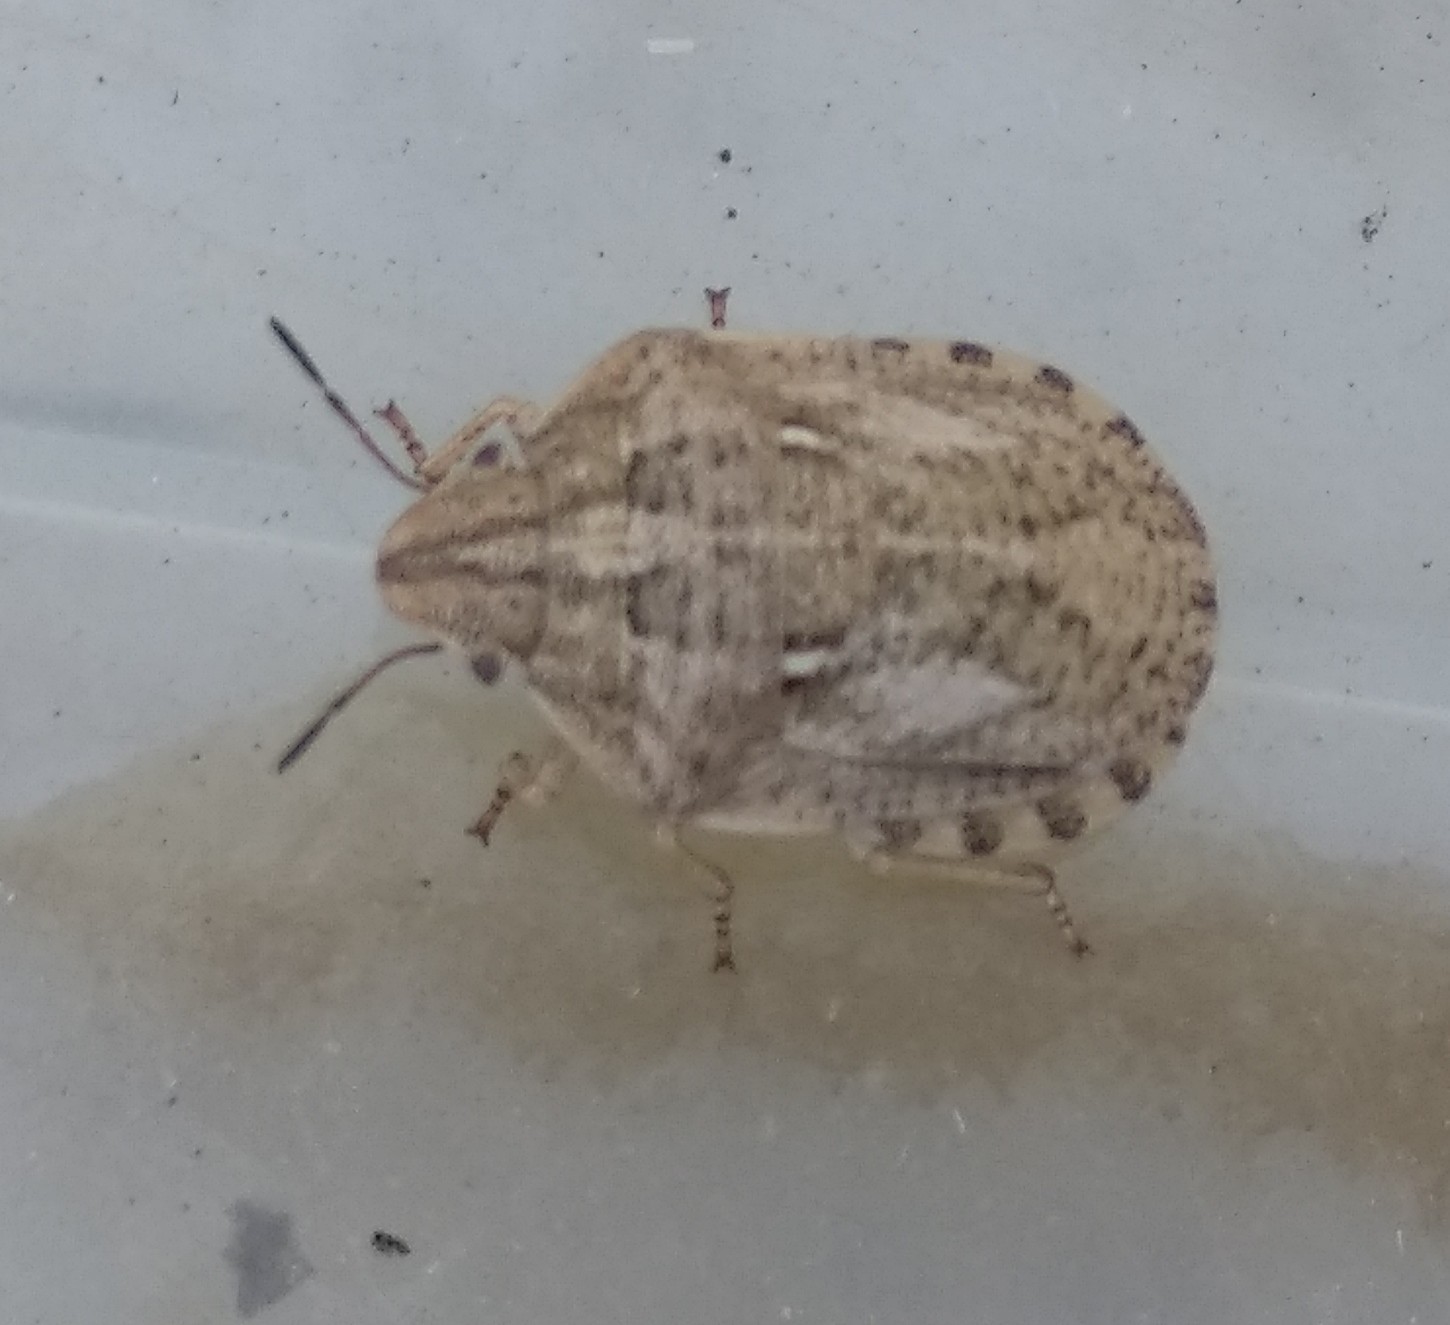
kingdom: Animalia
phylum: Arthropoda
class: Insecta
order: Hemiptera
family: Scutelleridae
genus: Eurygaster
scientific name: Eurygaster maura
